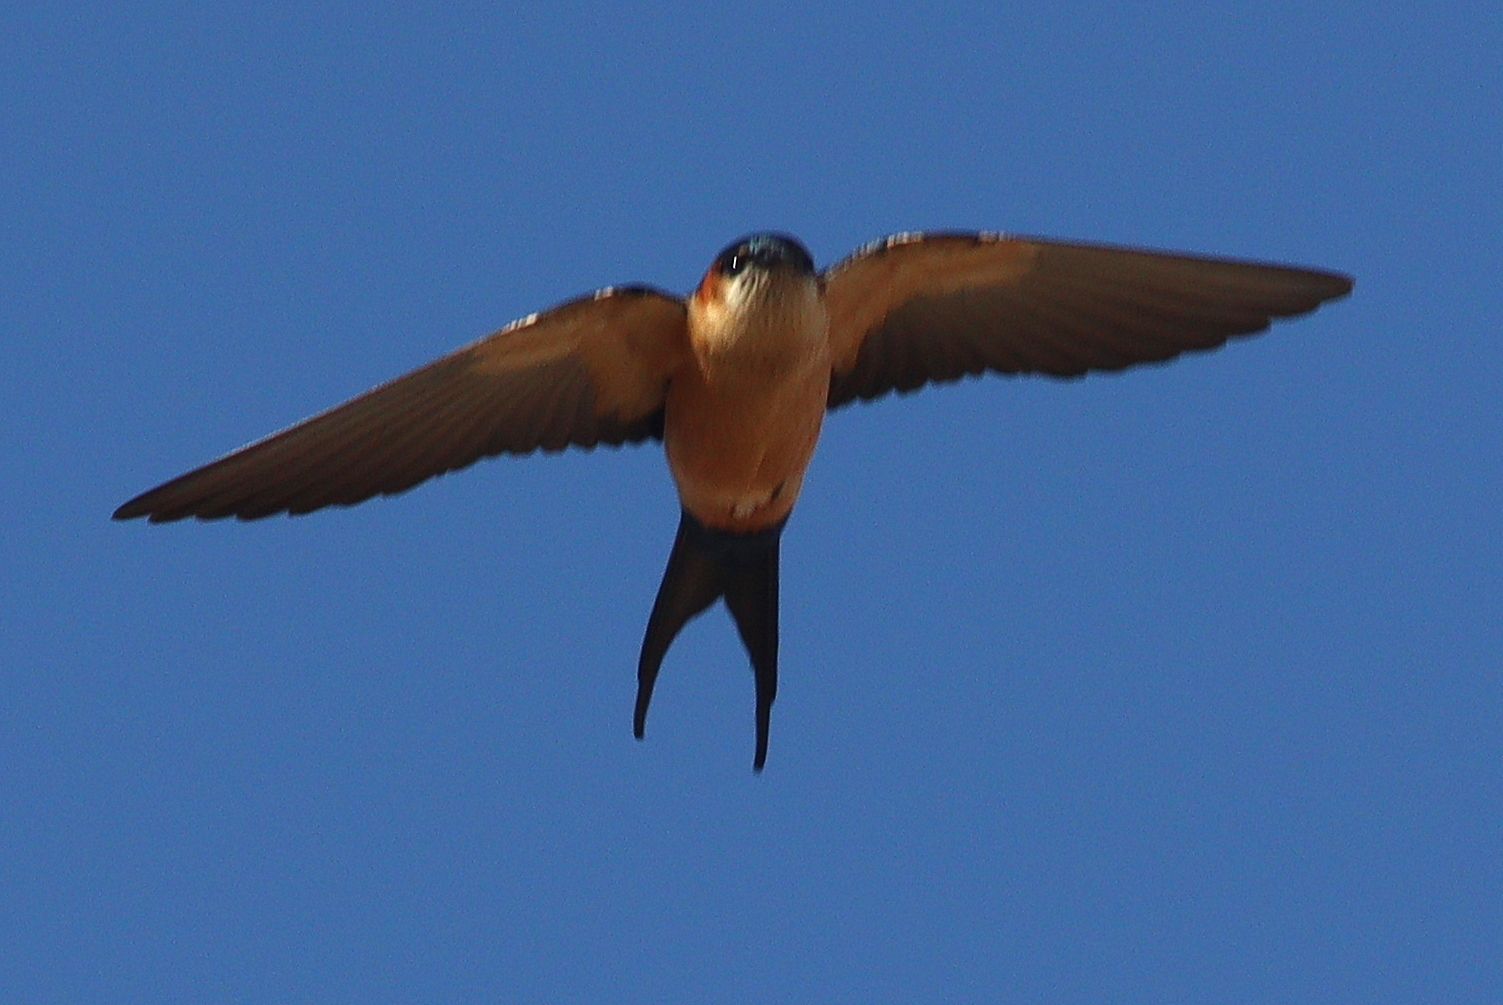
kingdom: Animalia
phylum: Chordata
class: Aves
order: Passeriformes
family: Hirundinidae
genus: Cecropis
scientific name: Cecropis daurica
